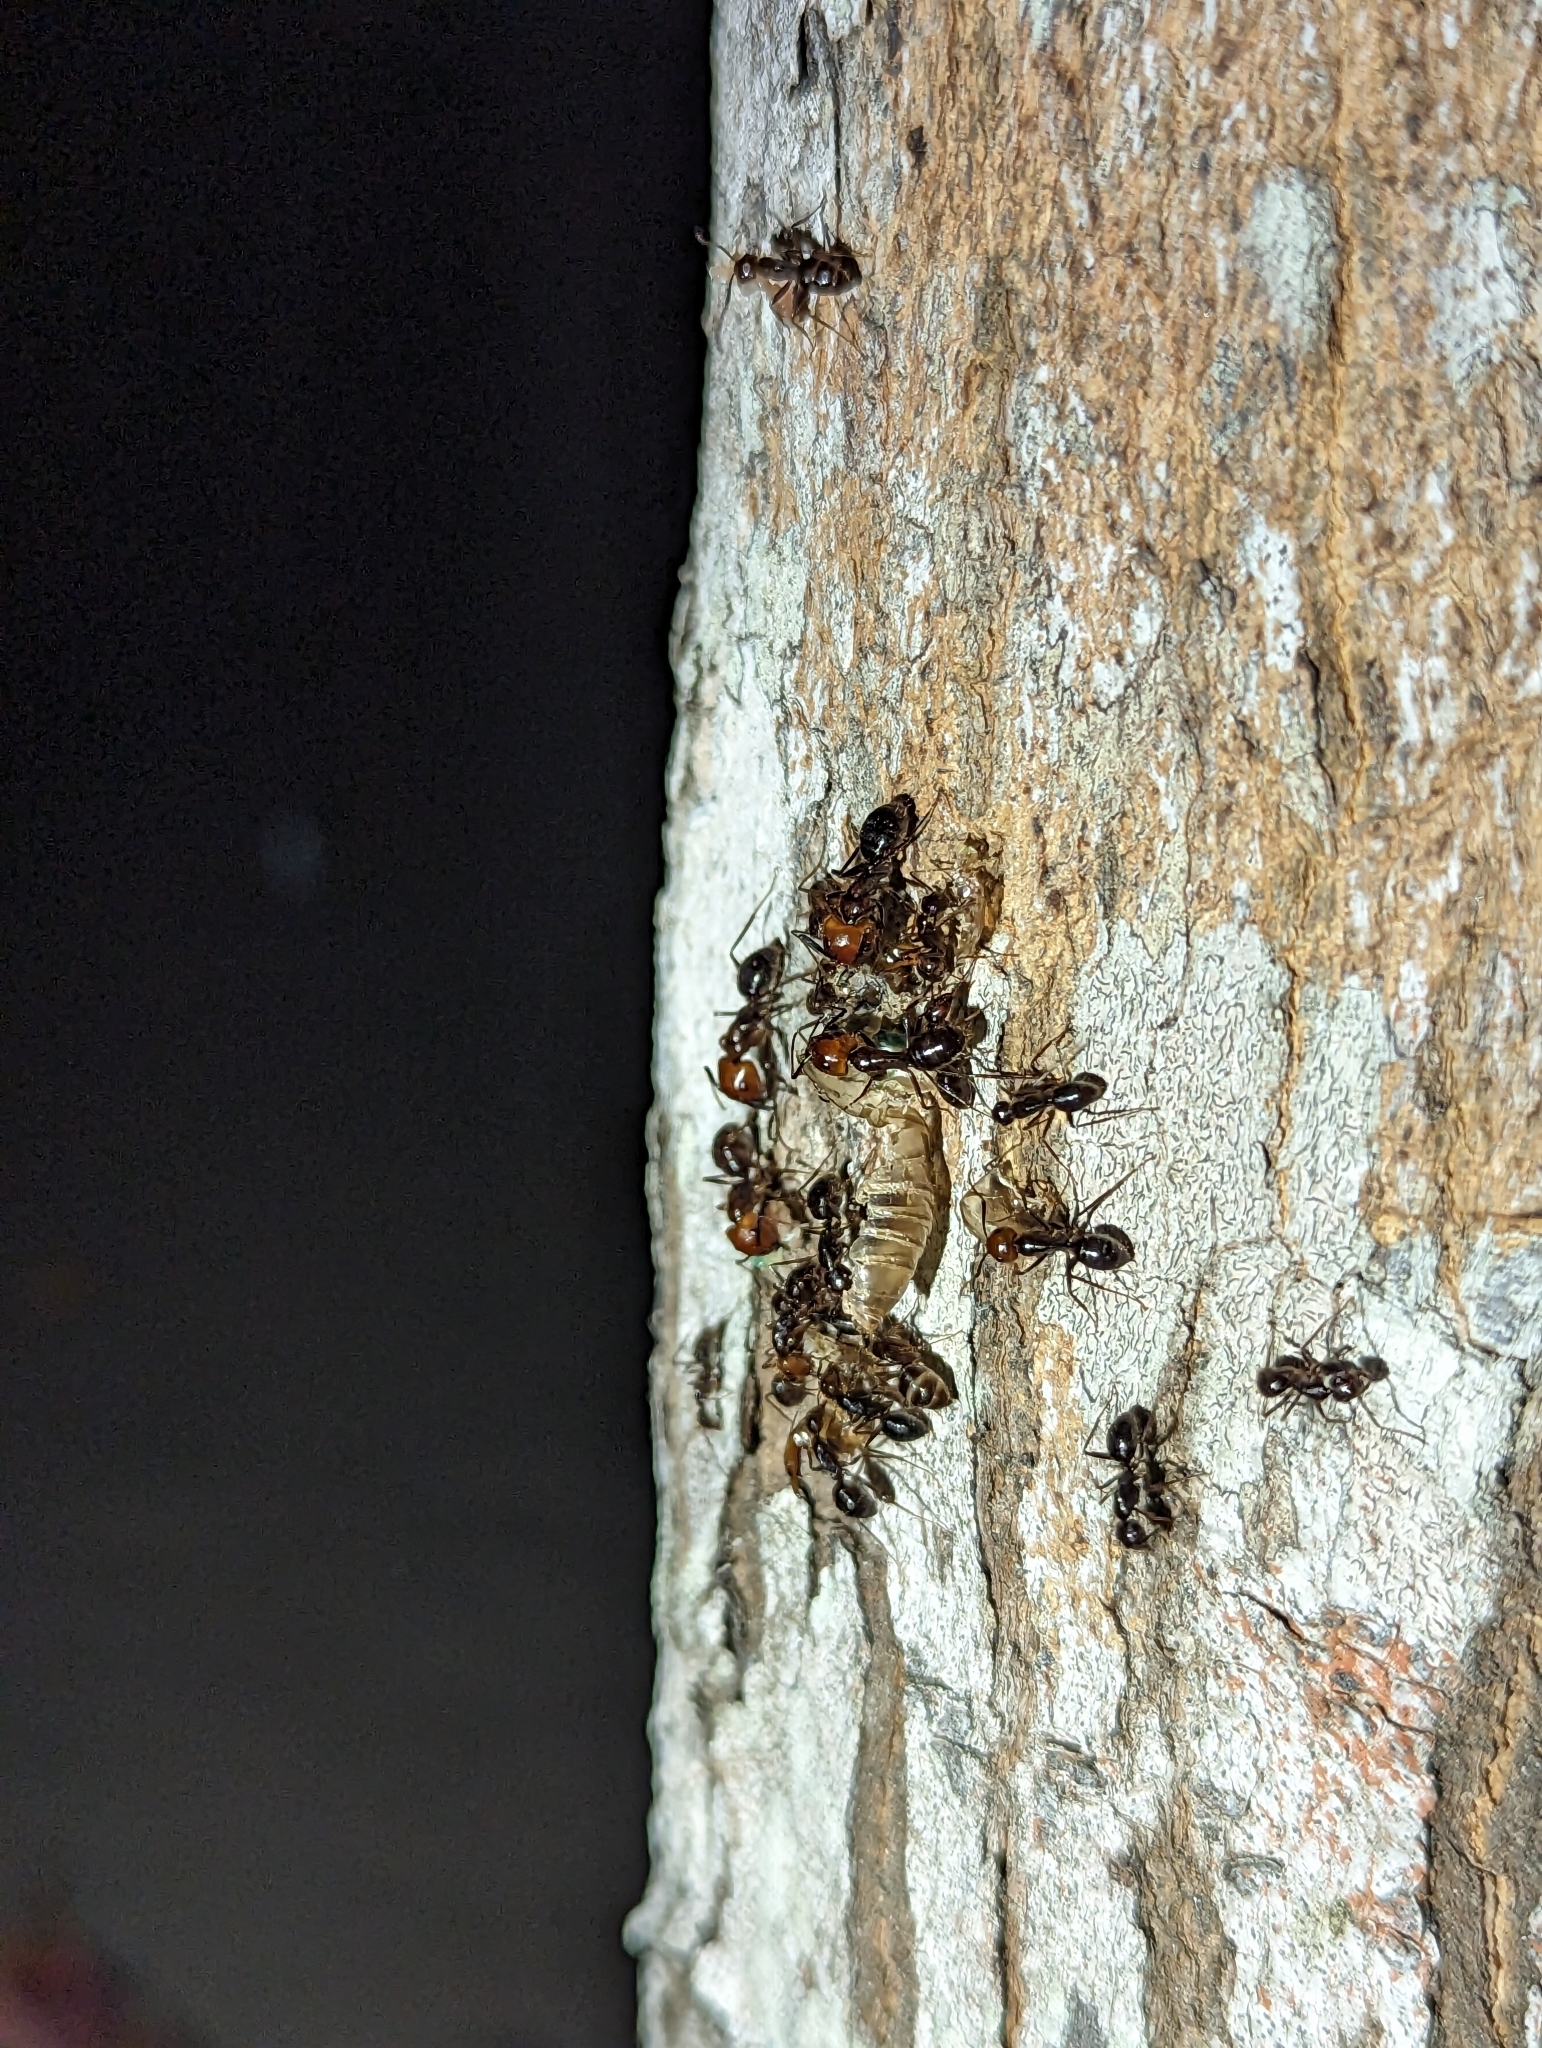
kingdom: Animalia
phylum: Arthropoda
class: Insecta
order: Hymenoptera
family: Formicidae
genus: Camponotus
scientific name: Camponotus bugnioni
